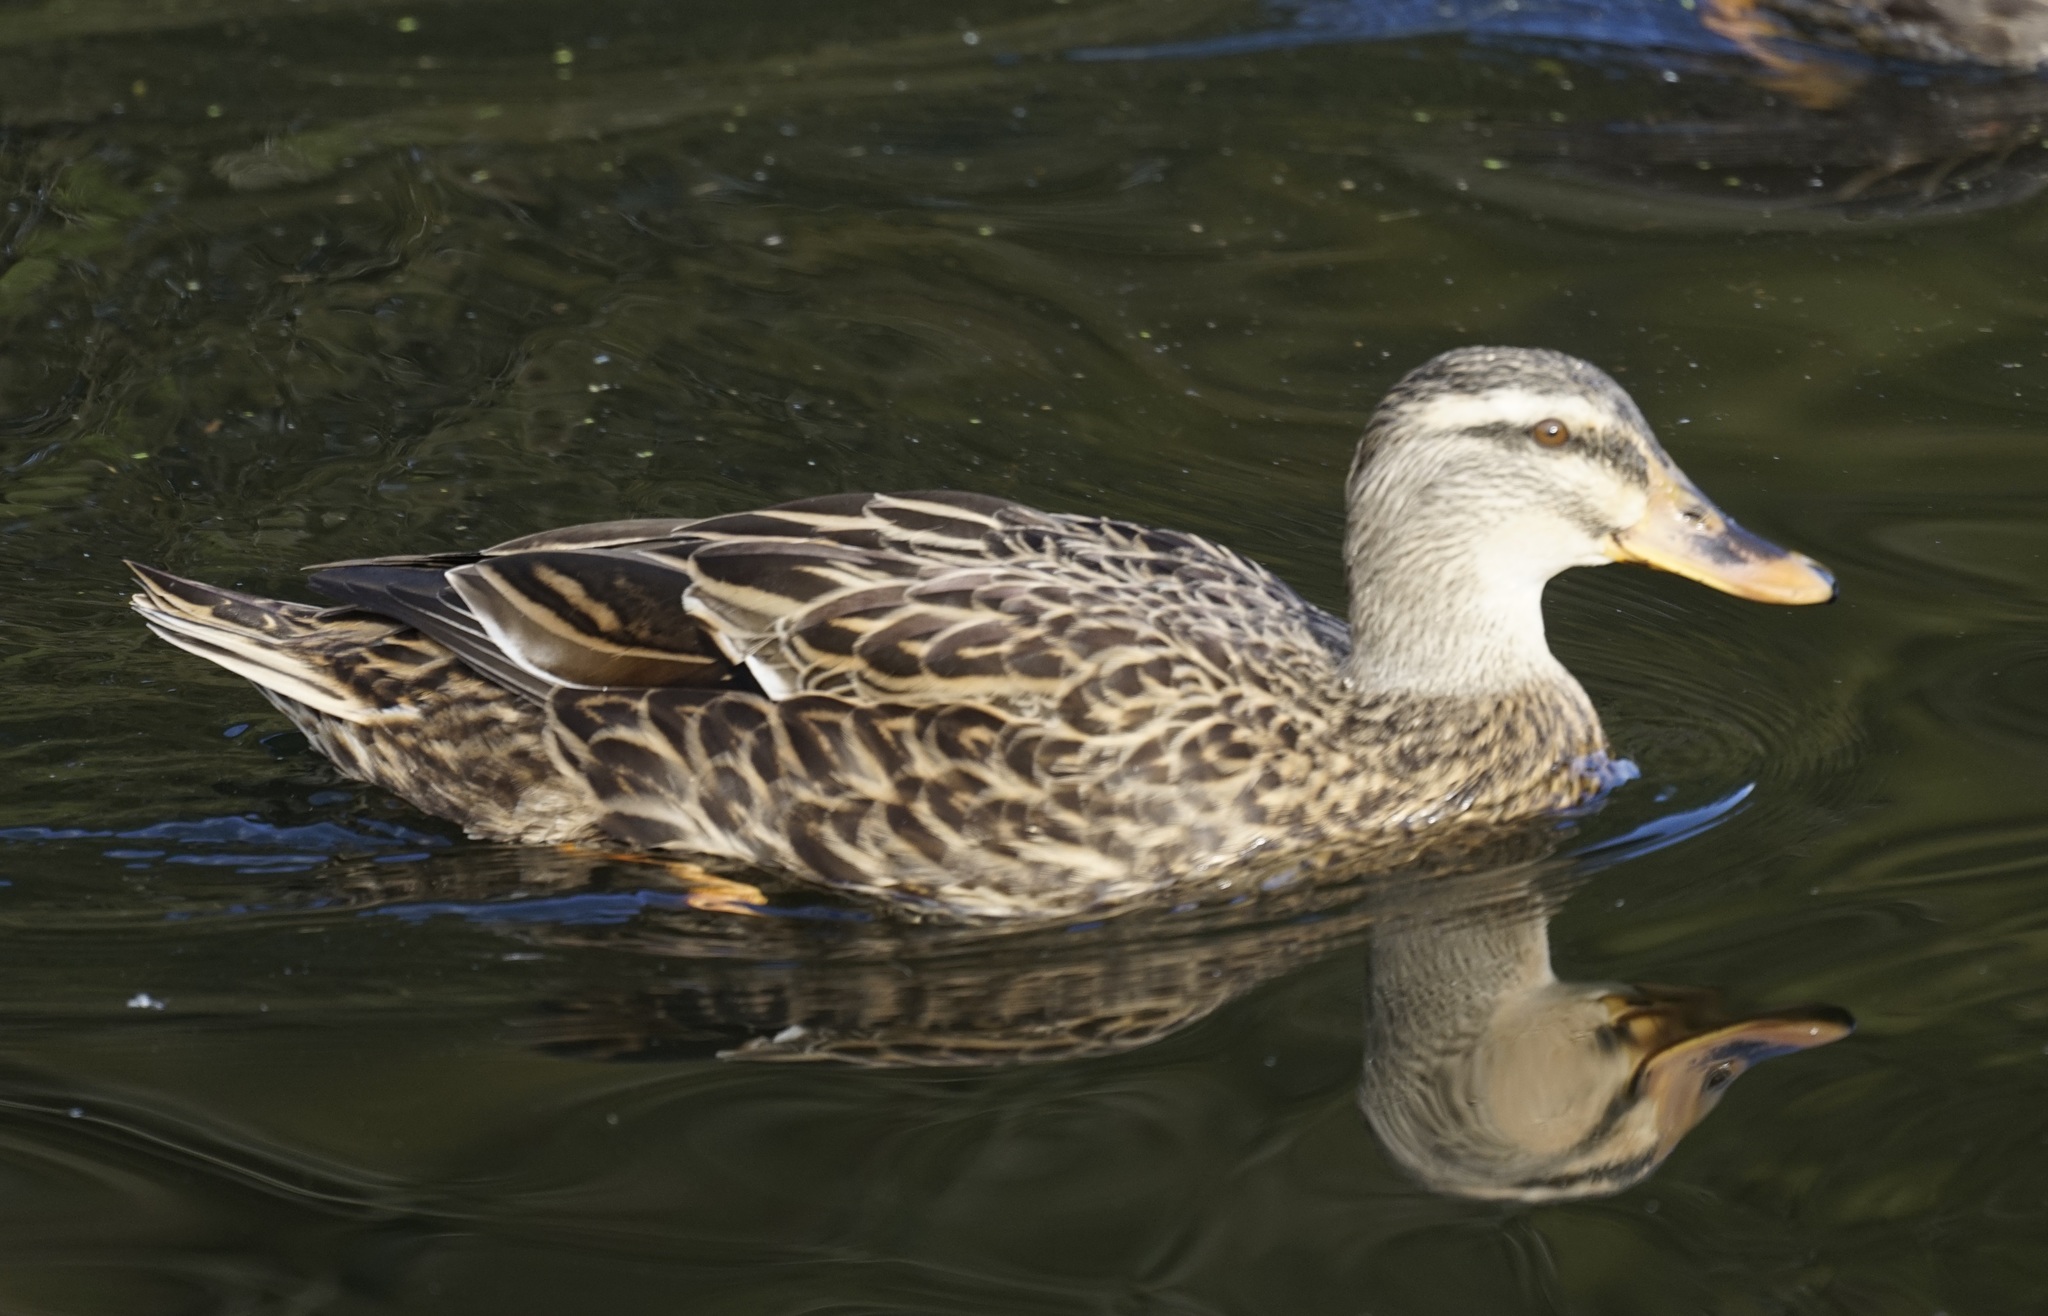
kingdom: Animalia
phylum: Chordata
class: Aves
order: Anseriformes
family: Anatidae
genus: Anas
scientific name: Anas platyrhynchos
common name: Mallard
